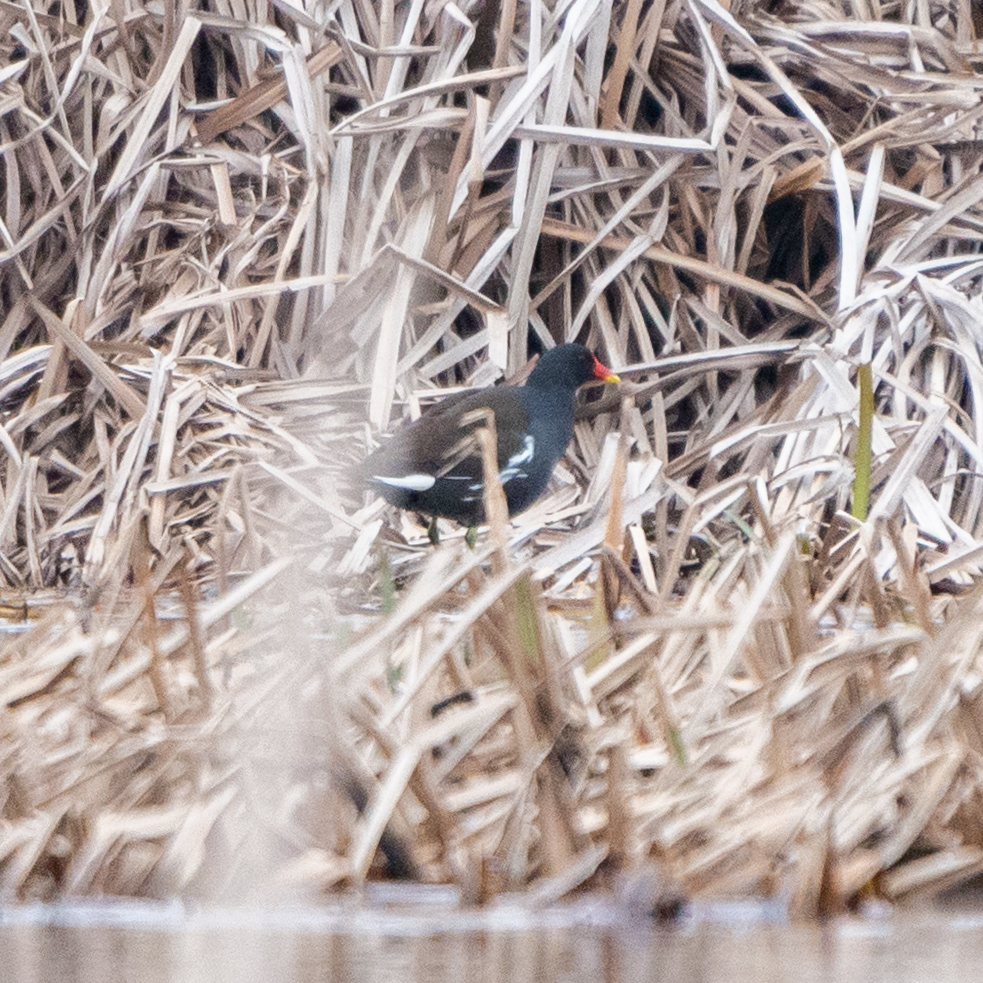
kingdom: Animalia
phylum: Chordata
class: Aves
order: Gruiformes
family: Rallidae
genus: Gallinula
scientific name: Gallinula chloropus
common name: Common moorhen
